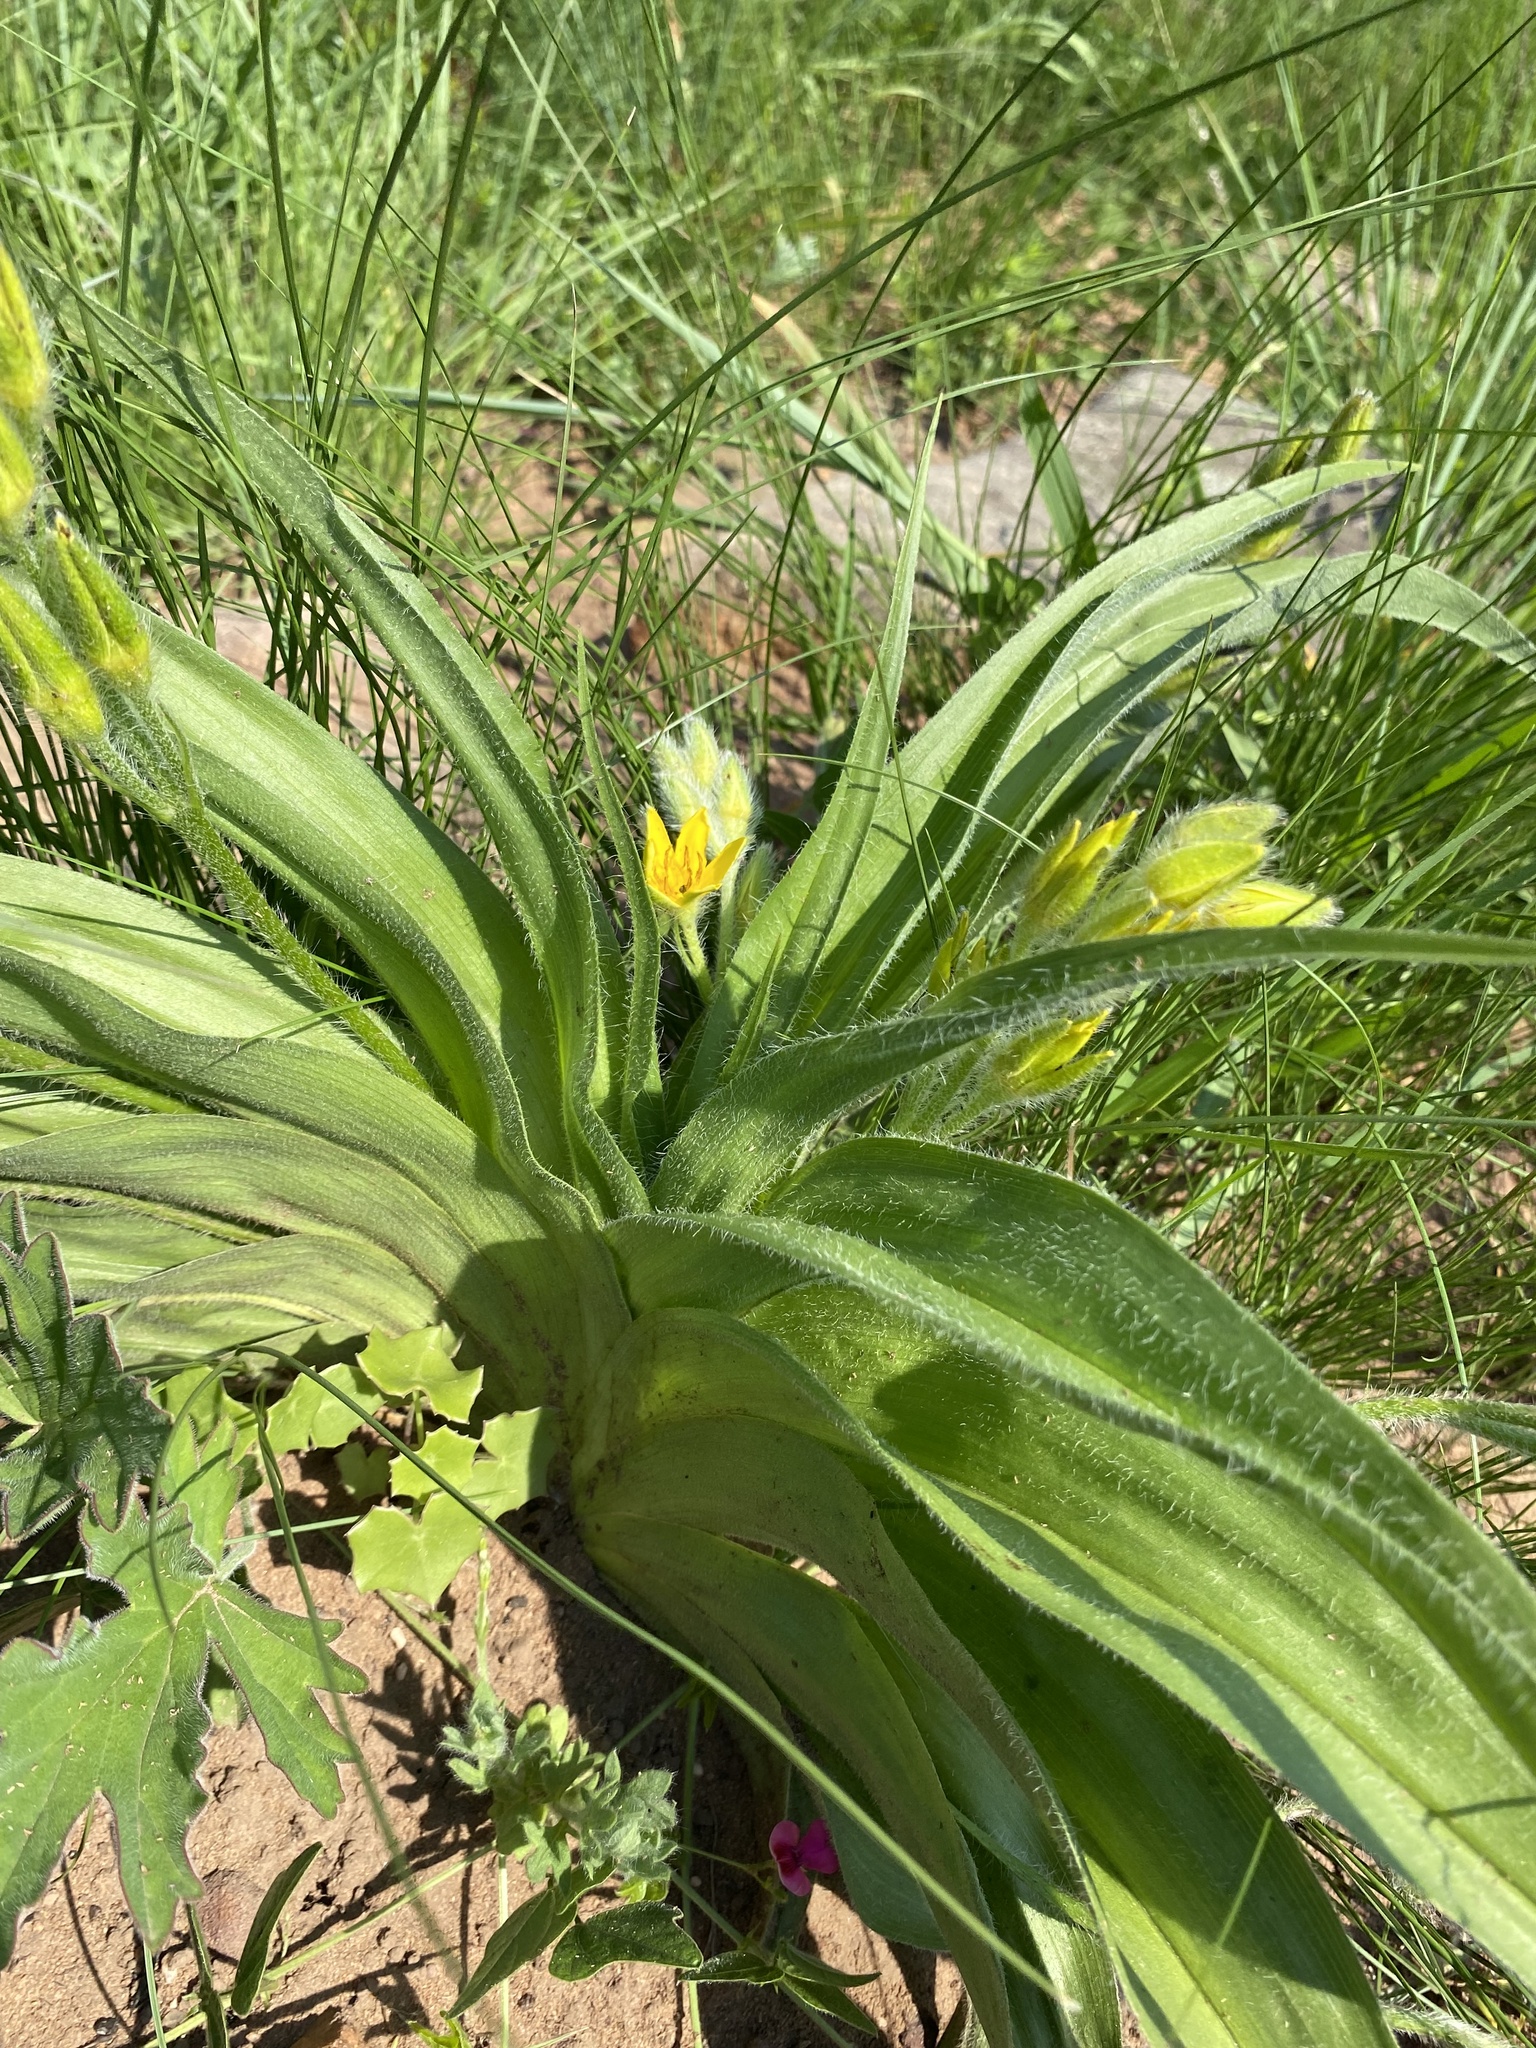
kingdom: Plantae
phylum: Tracheophyta
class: Liliopsida
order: Asparagales
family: Hypoxidaceae
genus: Hypoxis
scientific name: Hypoxis hemerocallidea
